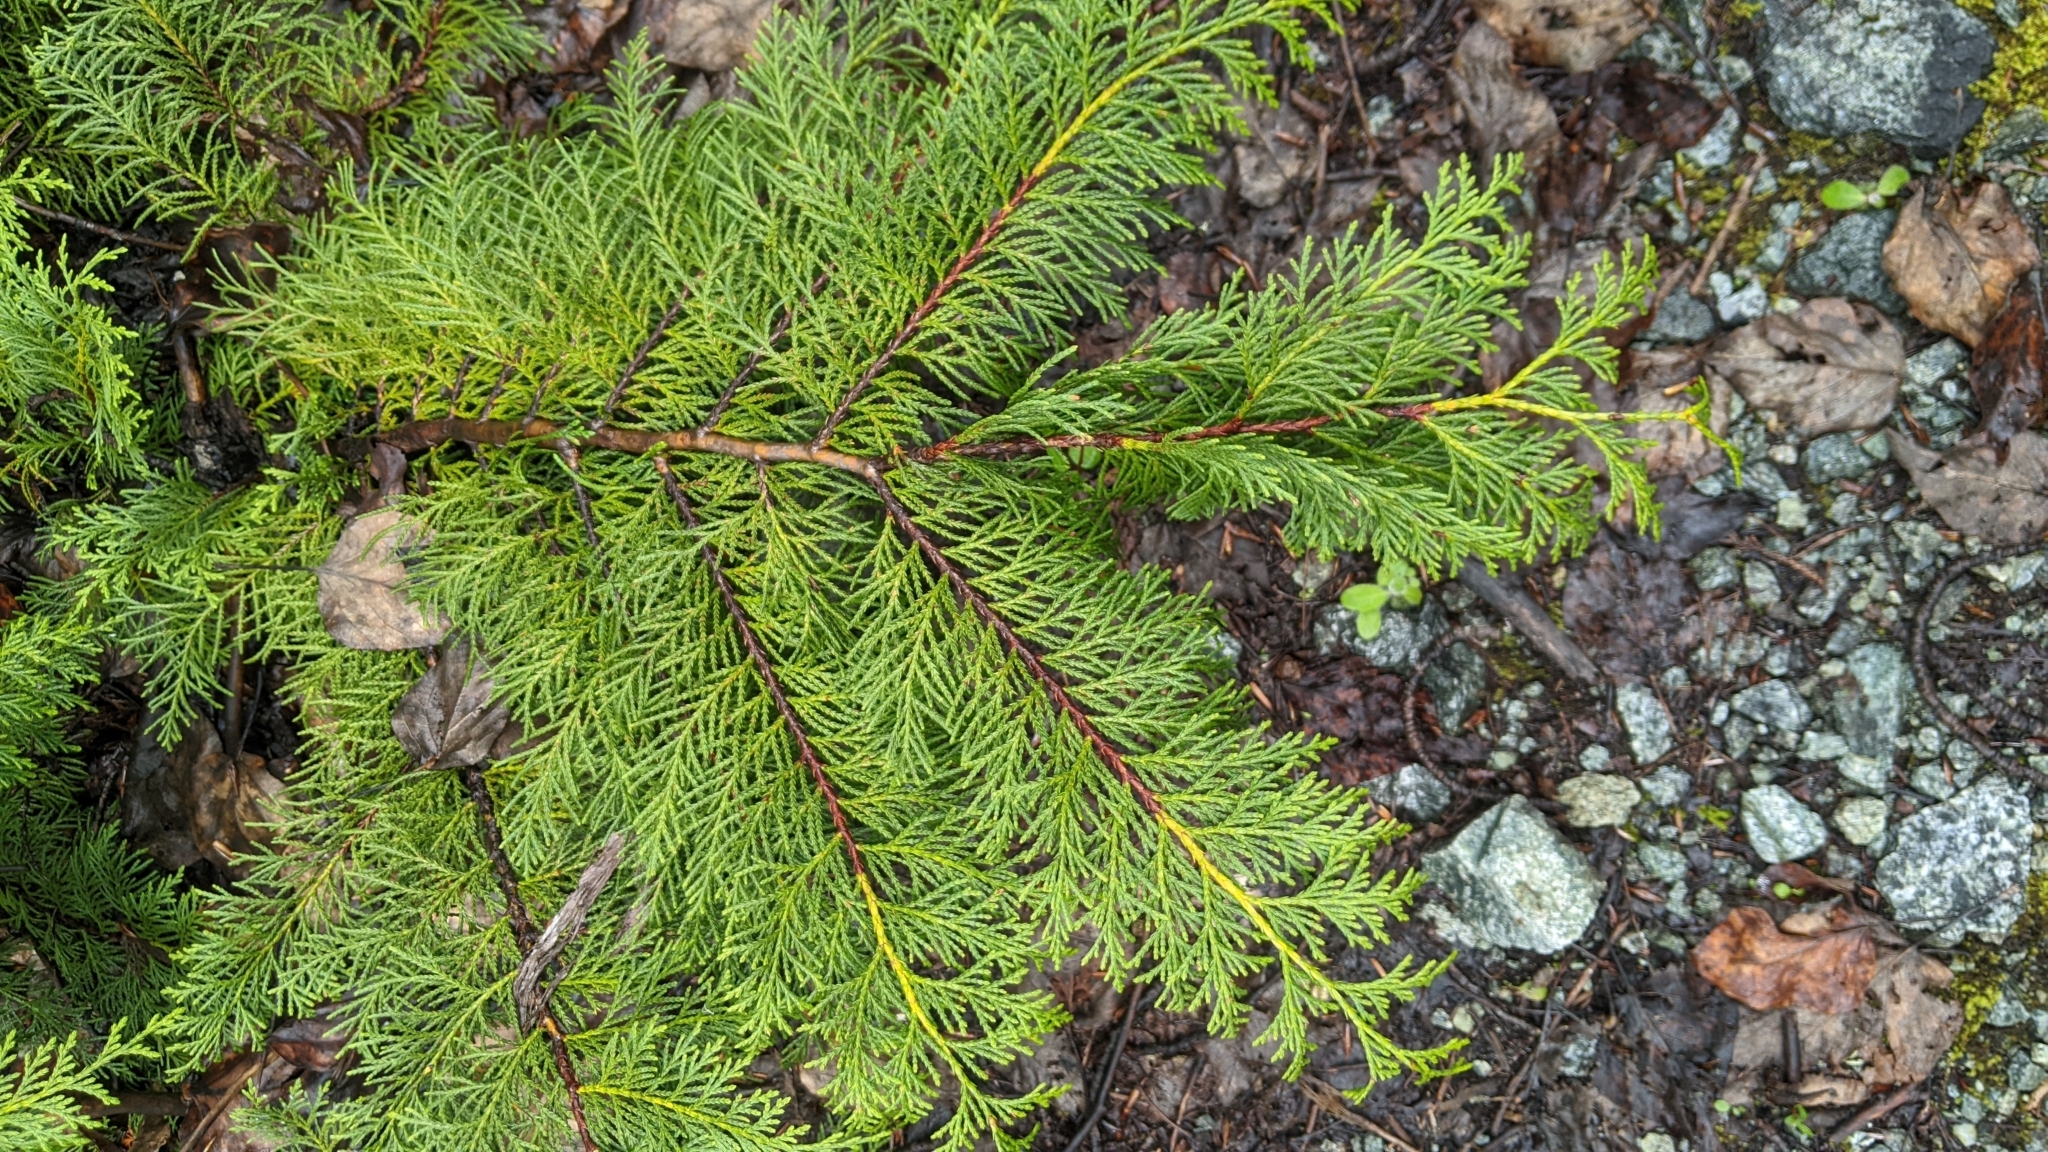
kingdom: Plantae
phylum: Tracheophyta
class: Pinopsida
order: Pinales
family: Cupressaceae
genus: Xanthocyparis
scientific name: Xanthocyparis nootkatensis
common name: Nootka cypress
